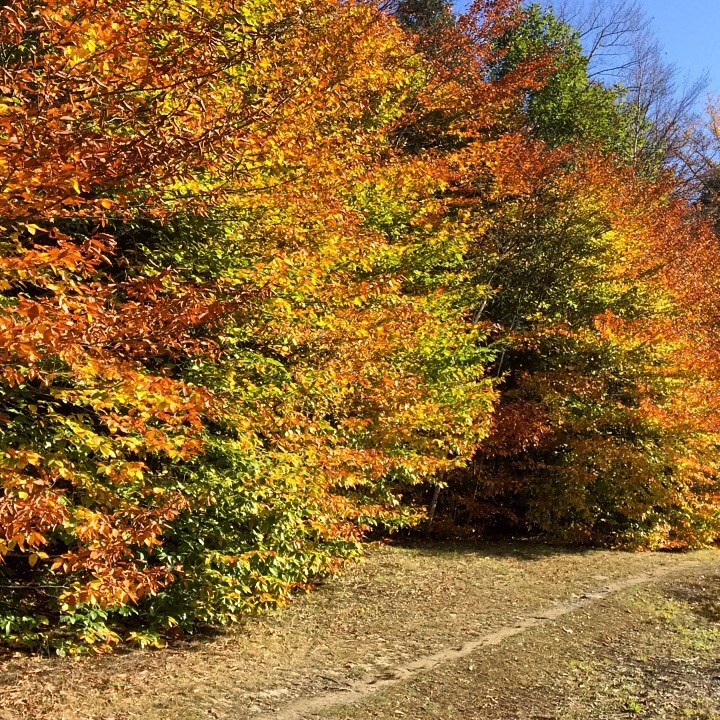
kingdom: Plantae
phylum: Tracheophyta
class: Magnoliopsida
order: Fagales
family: Fagaceae
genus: Fagus
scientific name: Fagus grandifolia
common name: American beech
